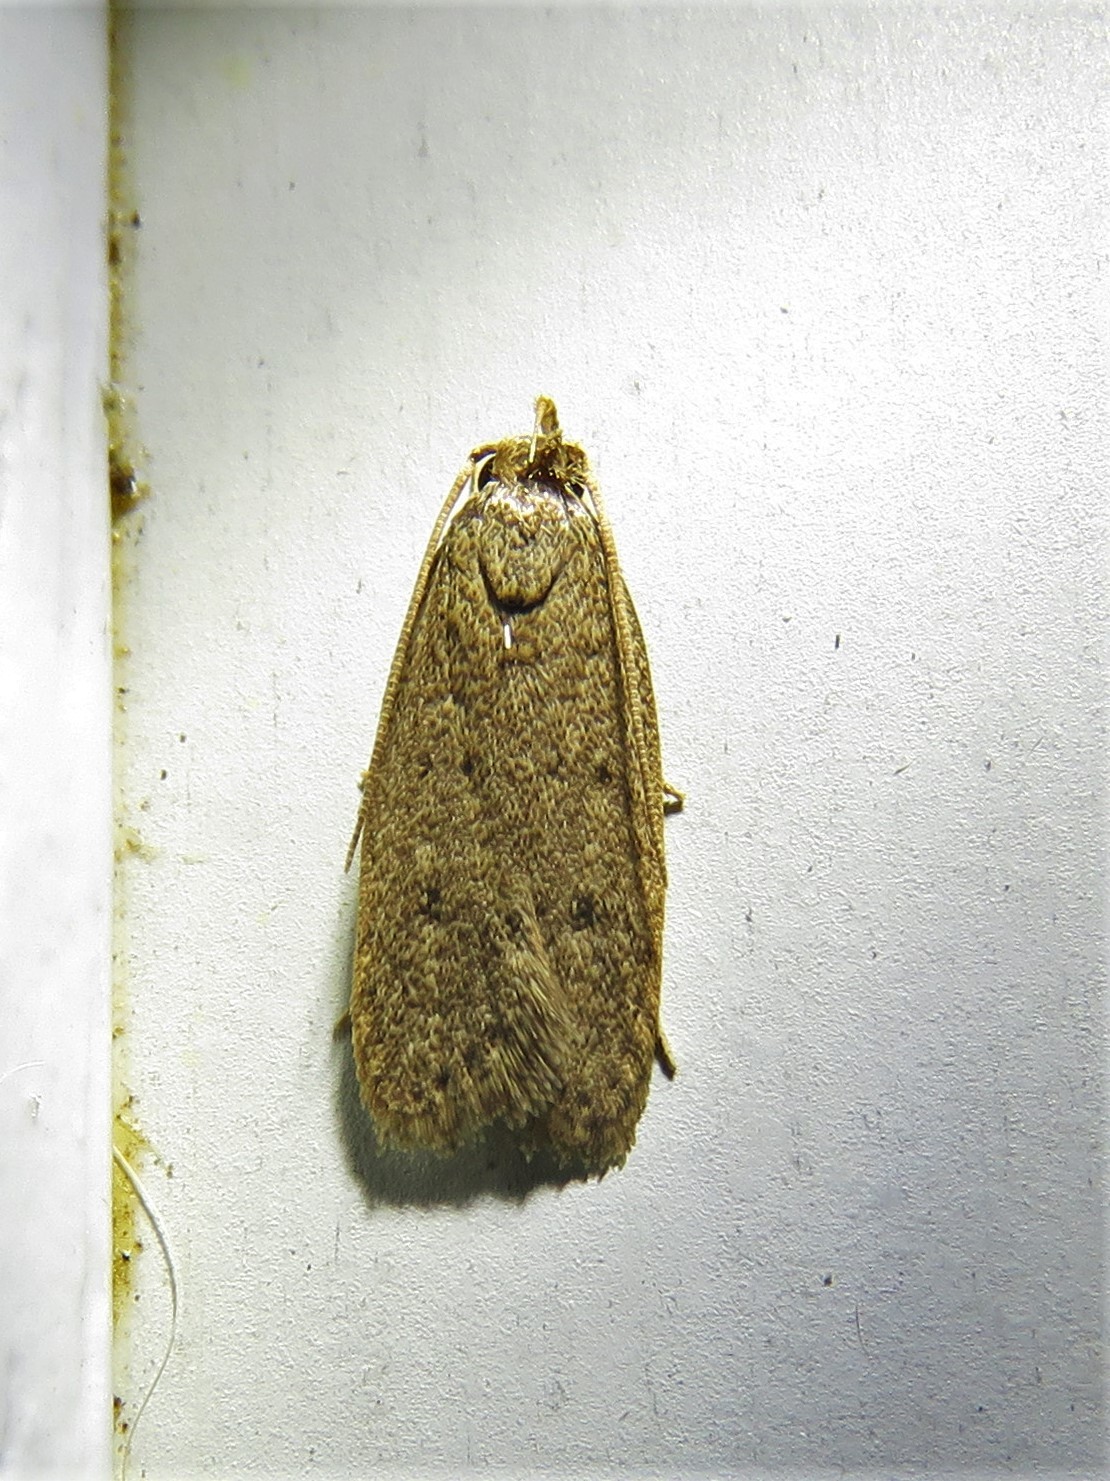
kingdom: Animalia
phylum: Arthropoda
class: Insecta
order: Lepidoptera
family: Autostichidae
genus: Autosticha
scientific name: Autosticha kyotensis
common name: Kyoto moth
